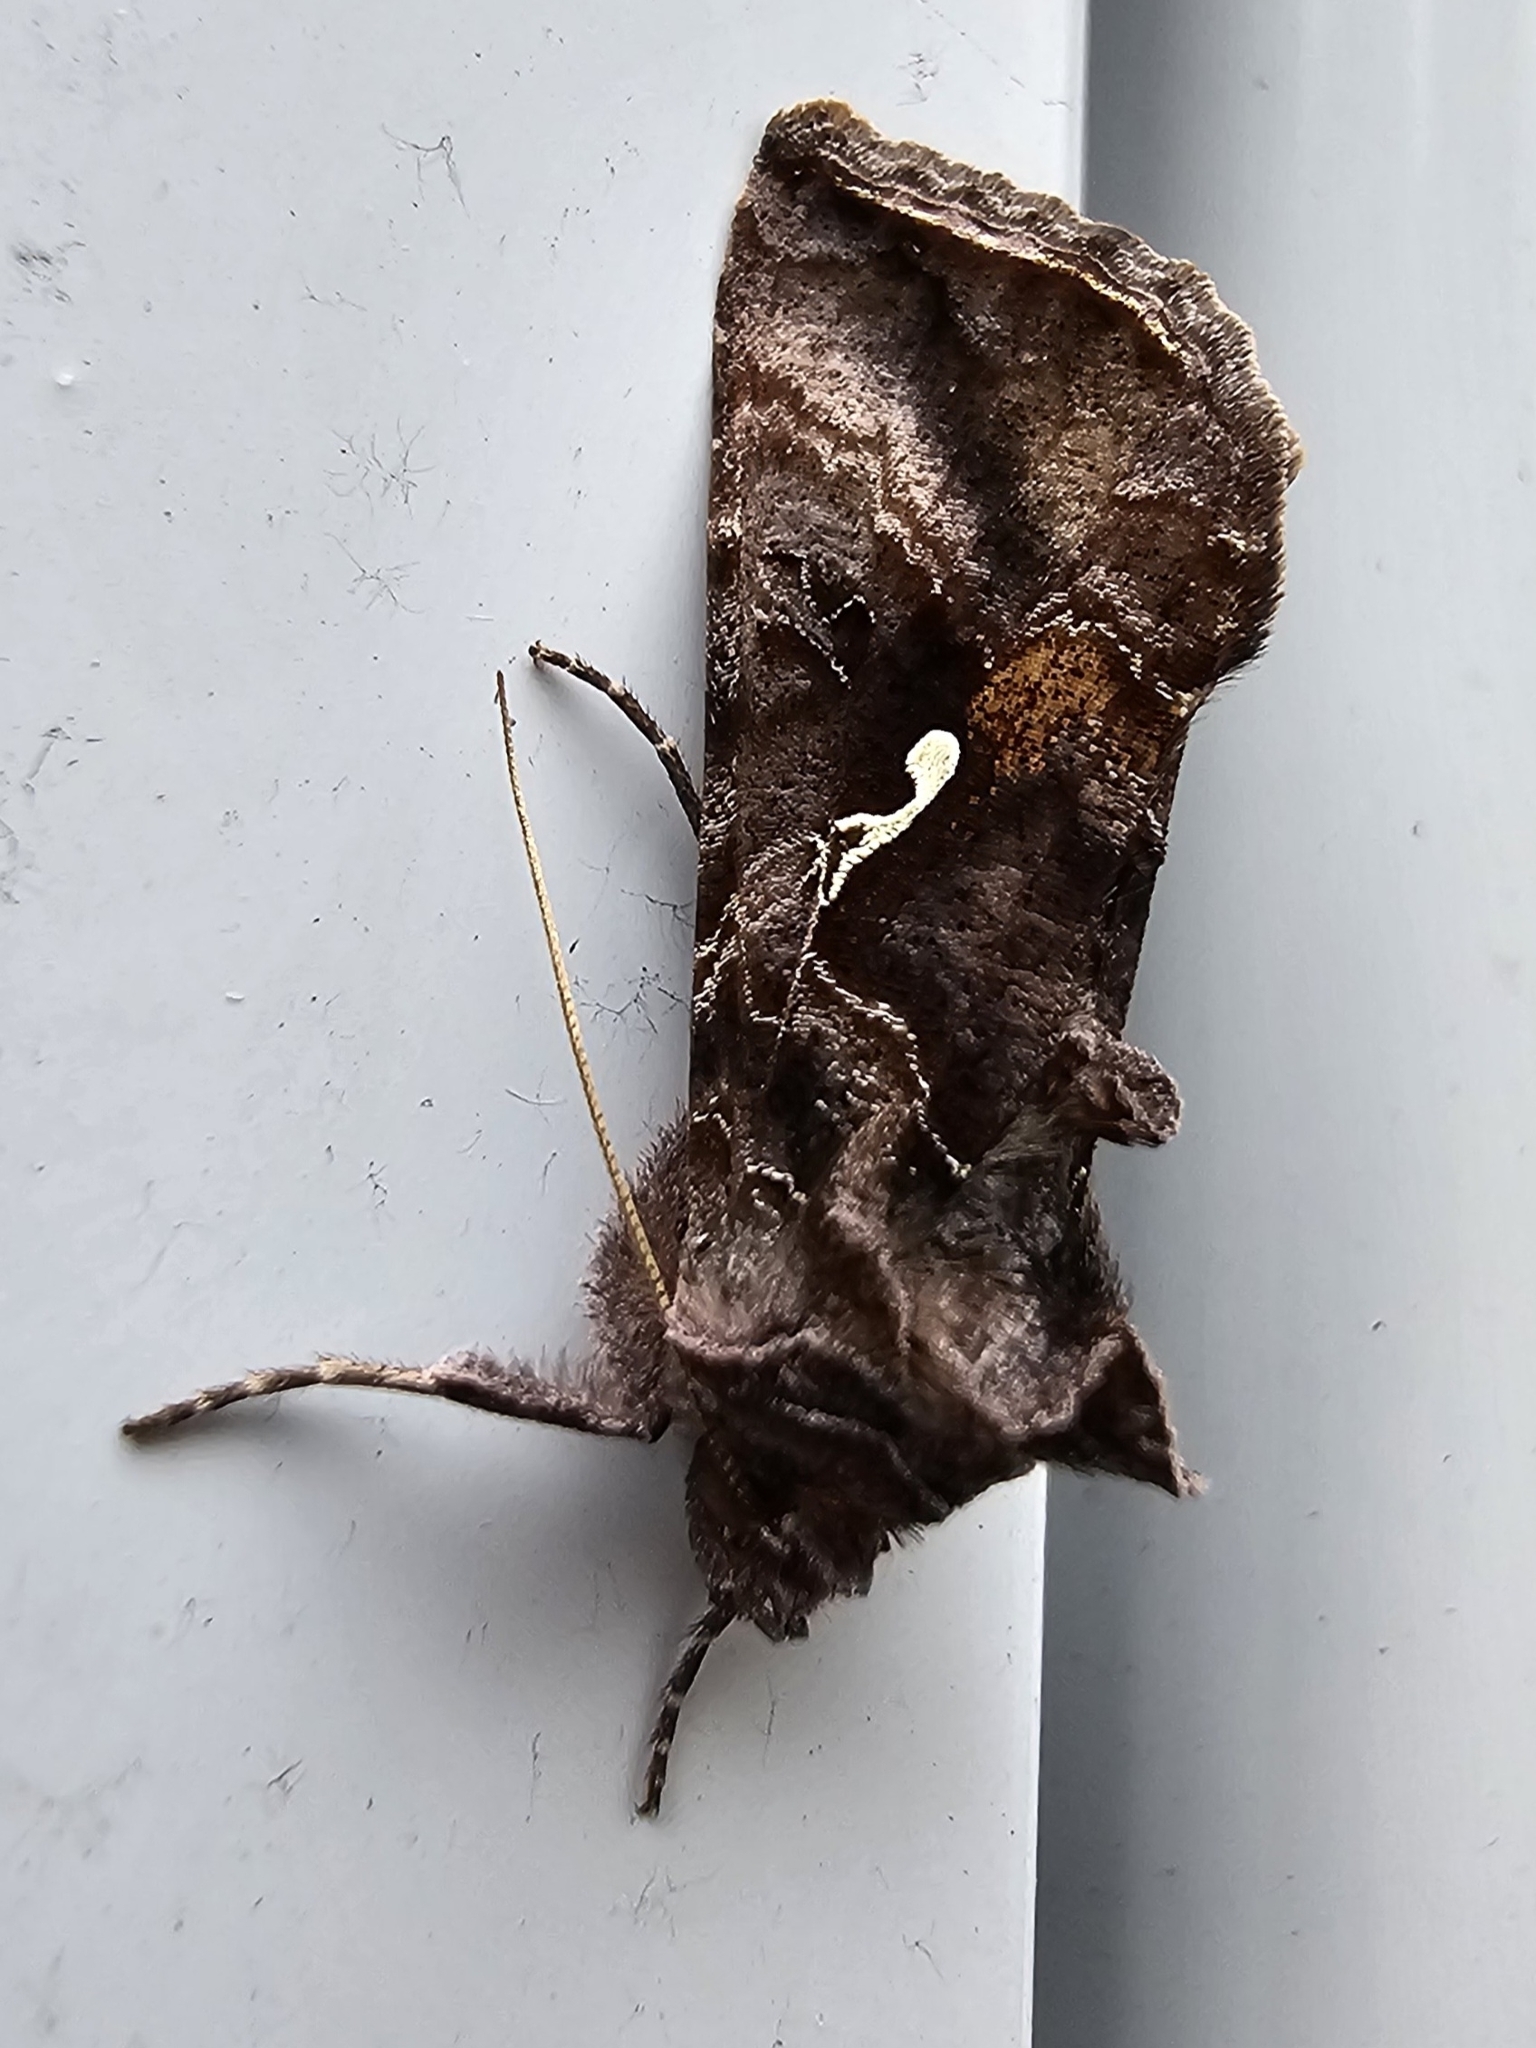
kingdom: Animalia
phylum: Arthropoda
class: Insecta
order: Lepidoptera
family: Noctuidae
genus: Autographa
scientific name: Autographa precationis
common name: Common looper moth
